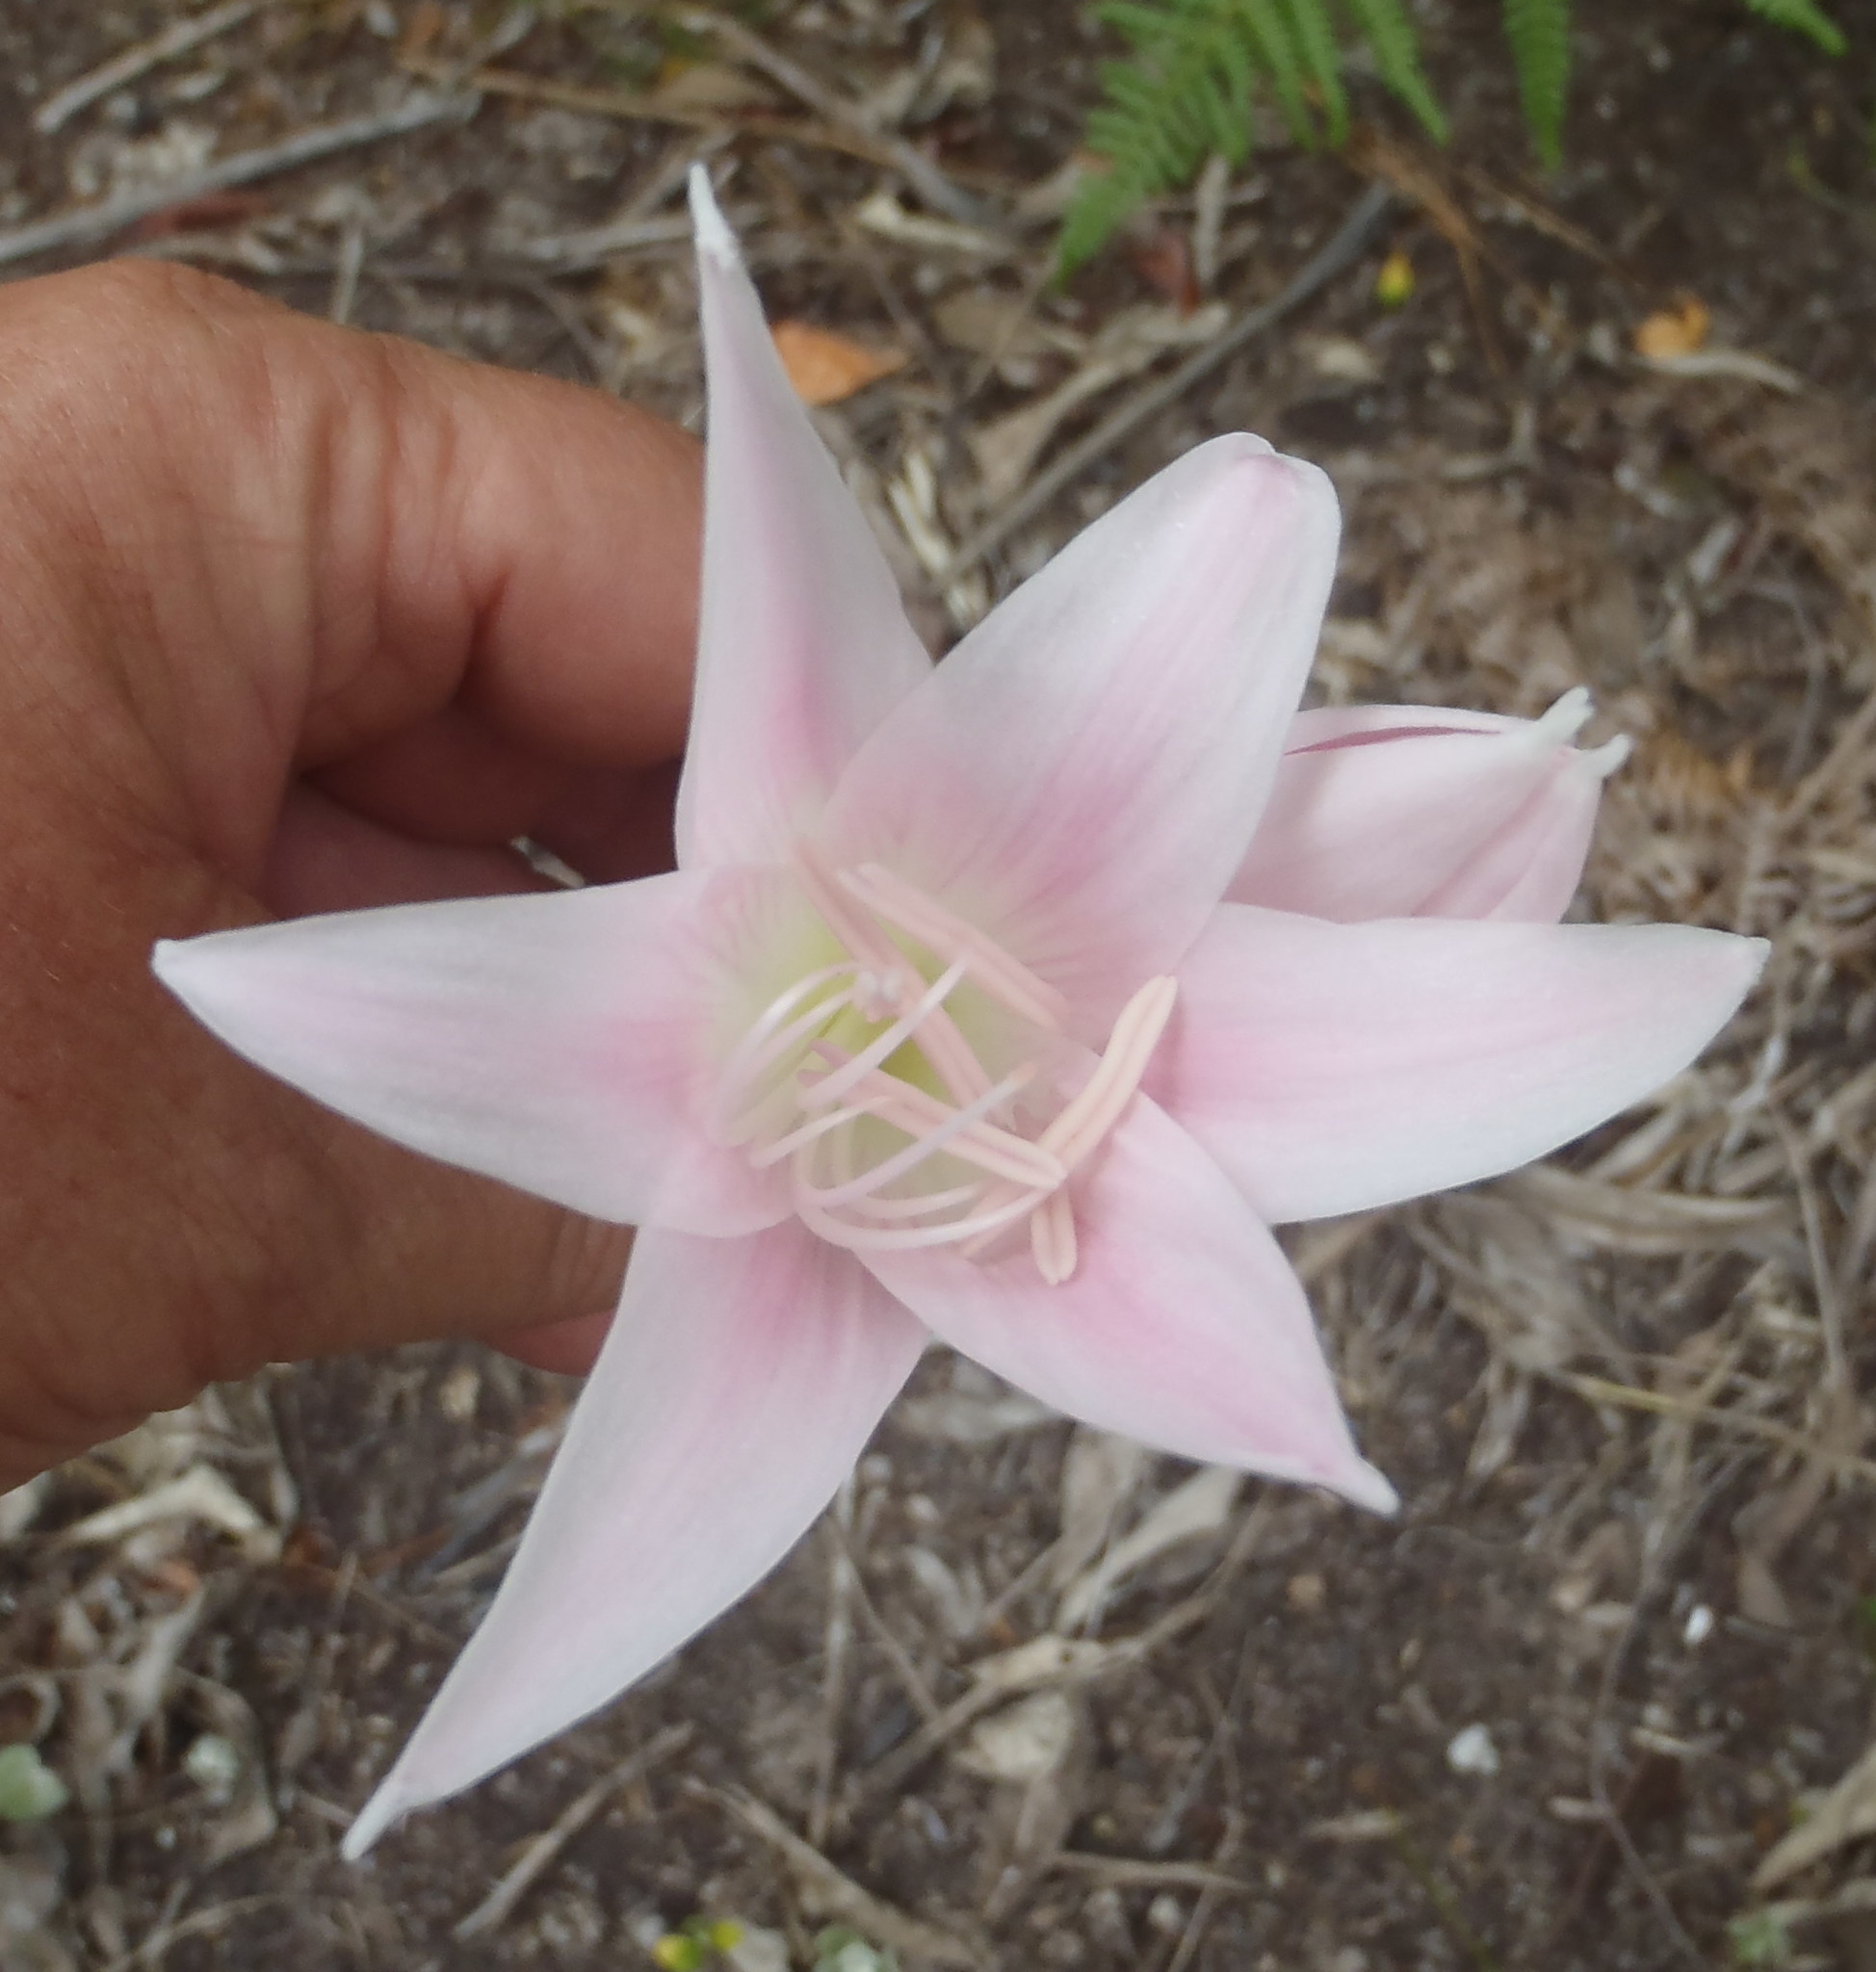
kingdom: Plantae
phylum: Tracheophyta
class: Liliopsida
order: Asparagales
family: Amaryllidaceae
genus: Amaryllis
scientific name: Amaryllis belladonna
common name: Jersey lily
